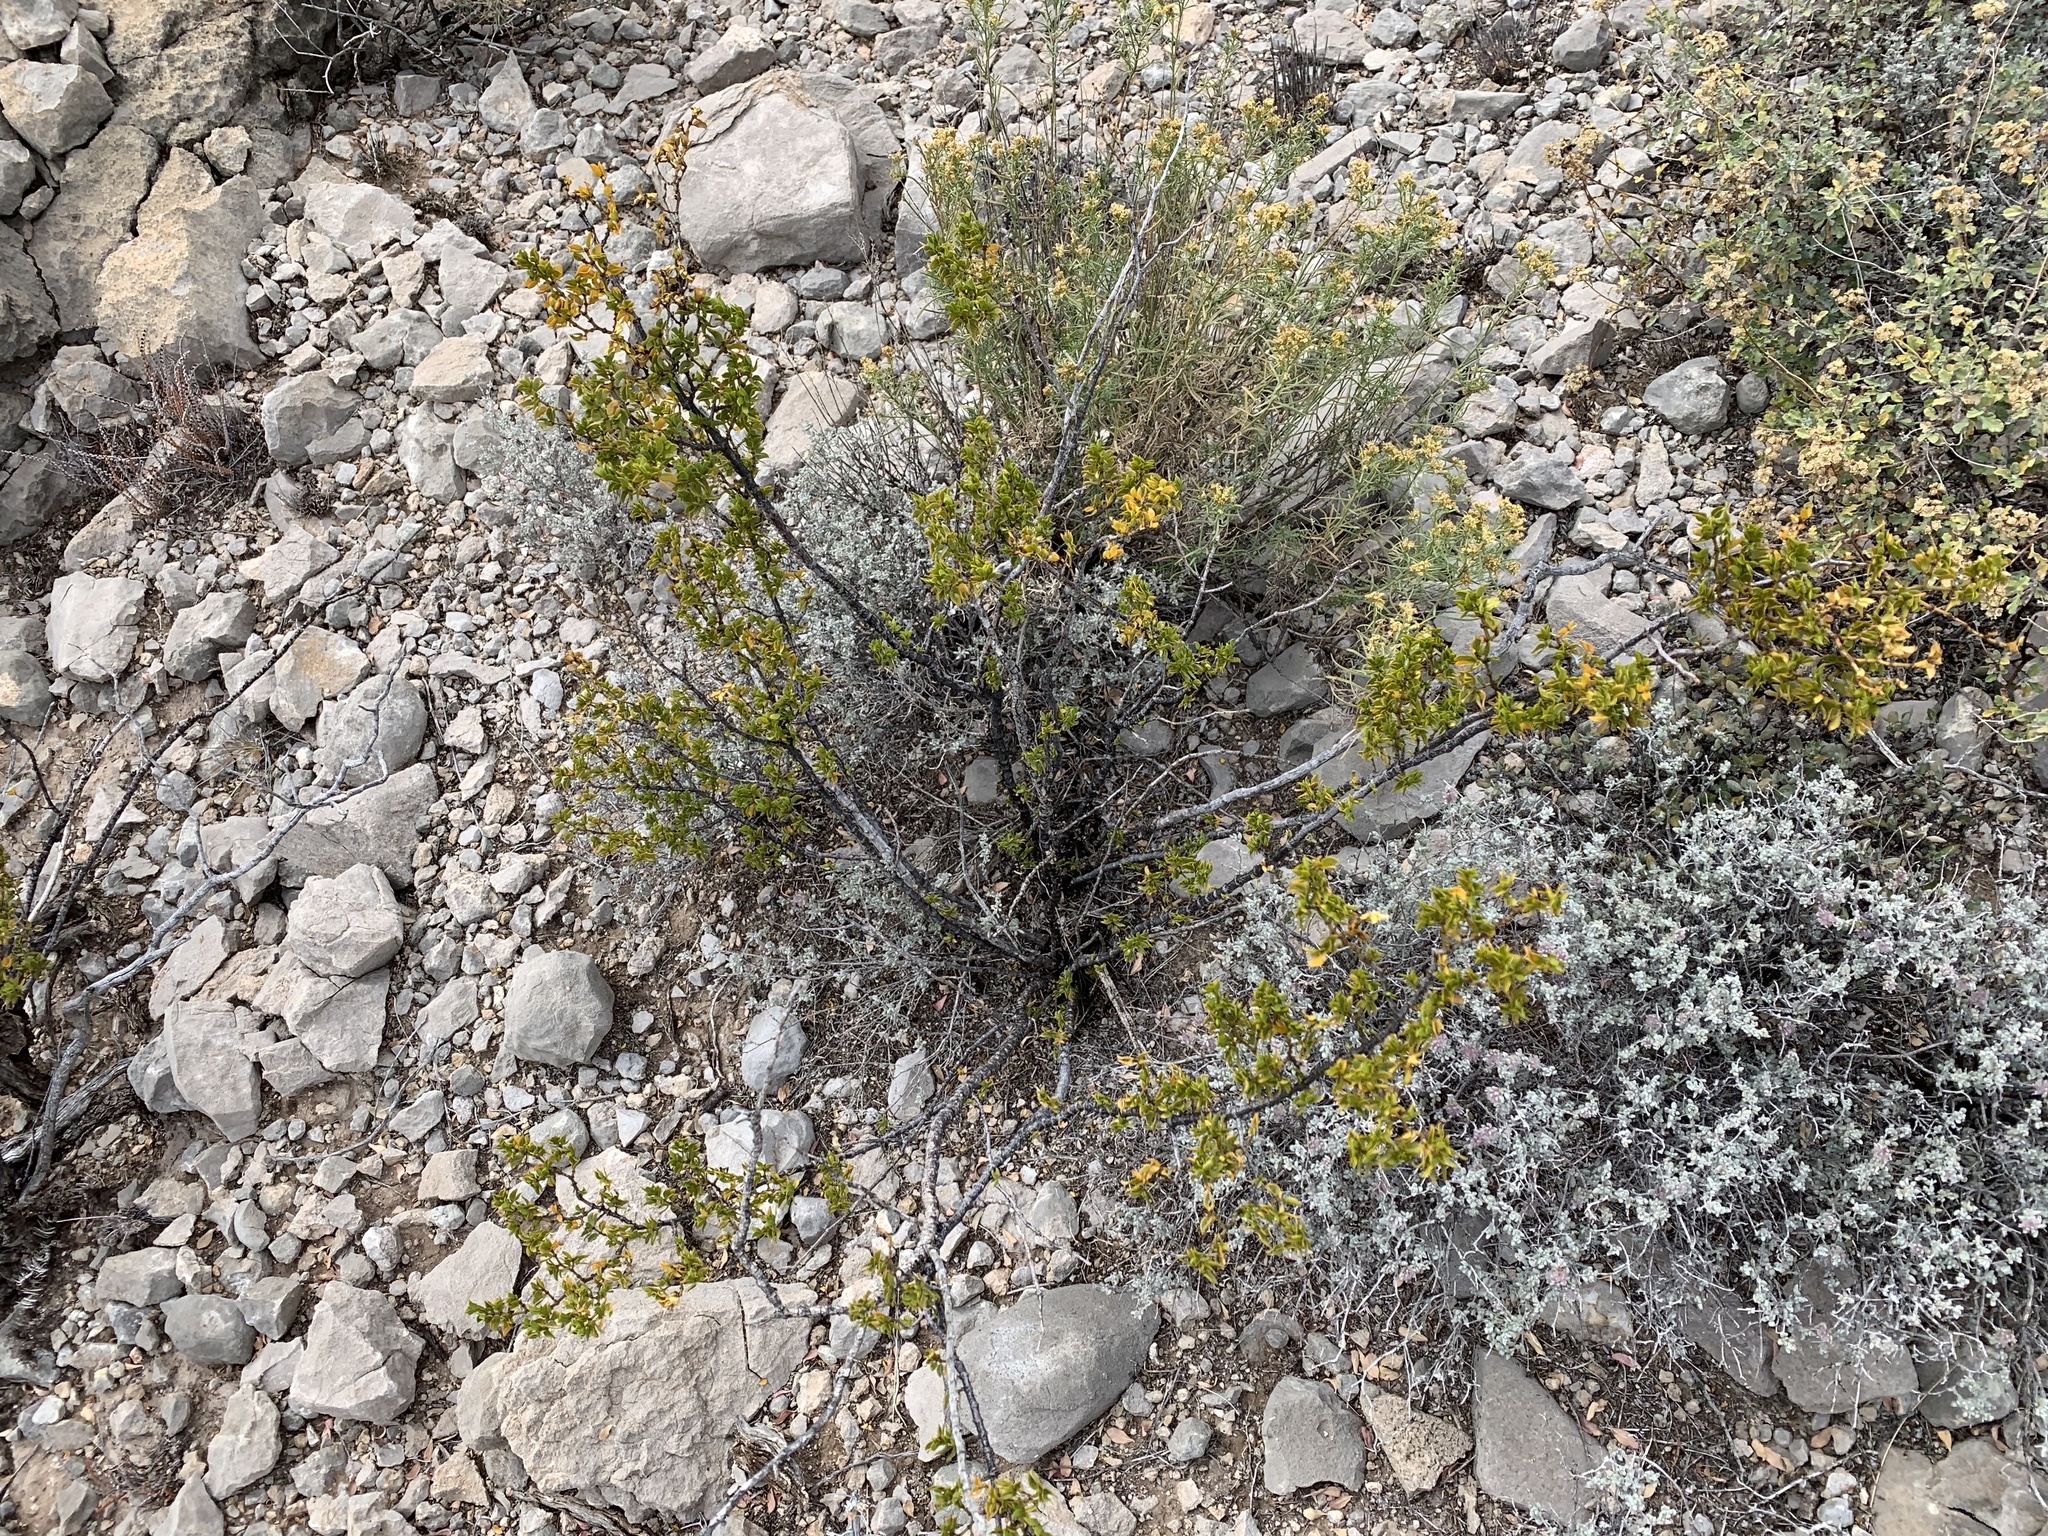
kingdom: Plantae
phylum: Tracheophyta
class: Magnoliopsida
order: Zygophyllales
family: Zygophyllaceae
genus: Larrea
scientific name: Larrea tridentata
